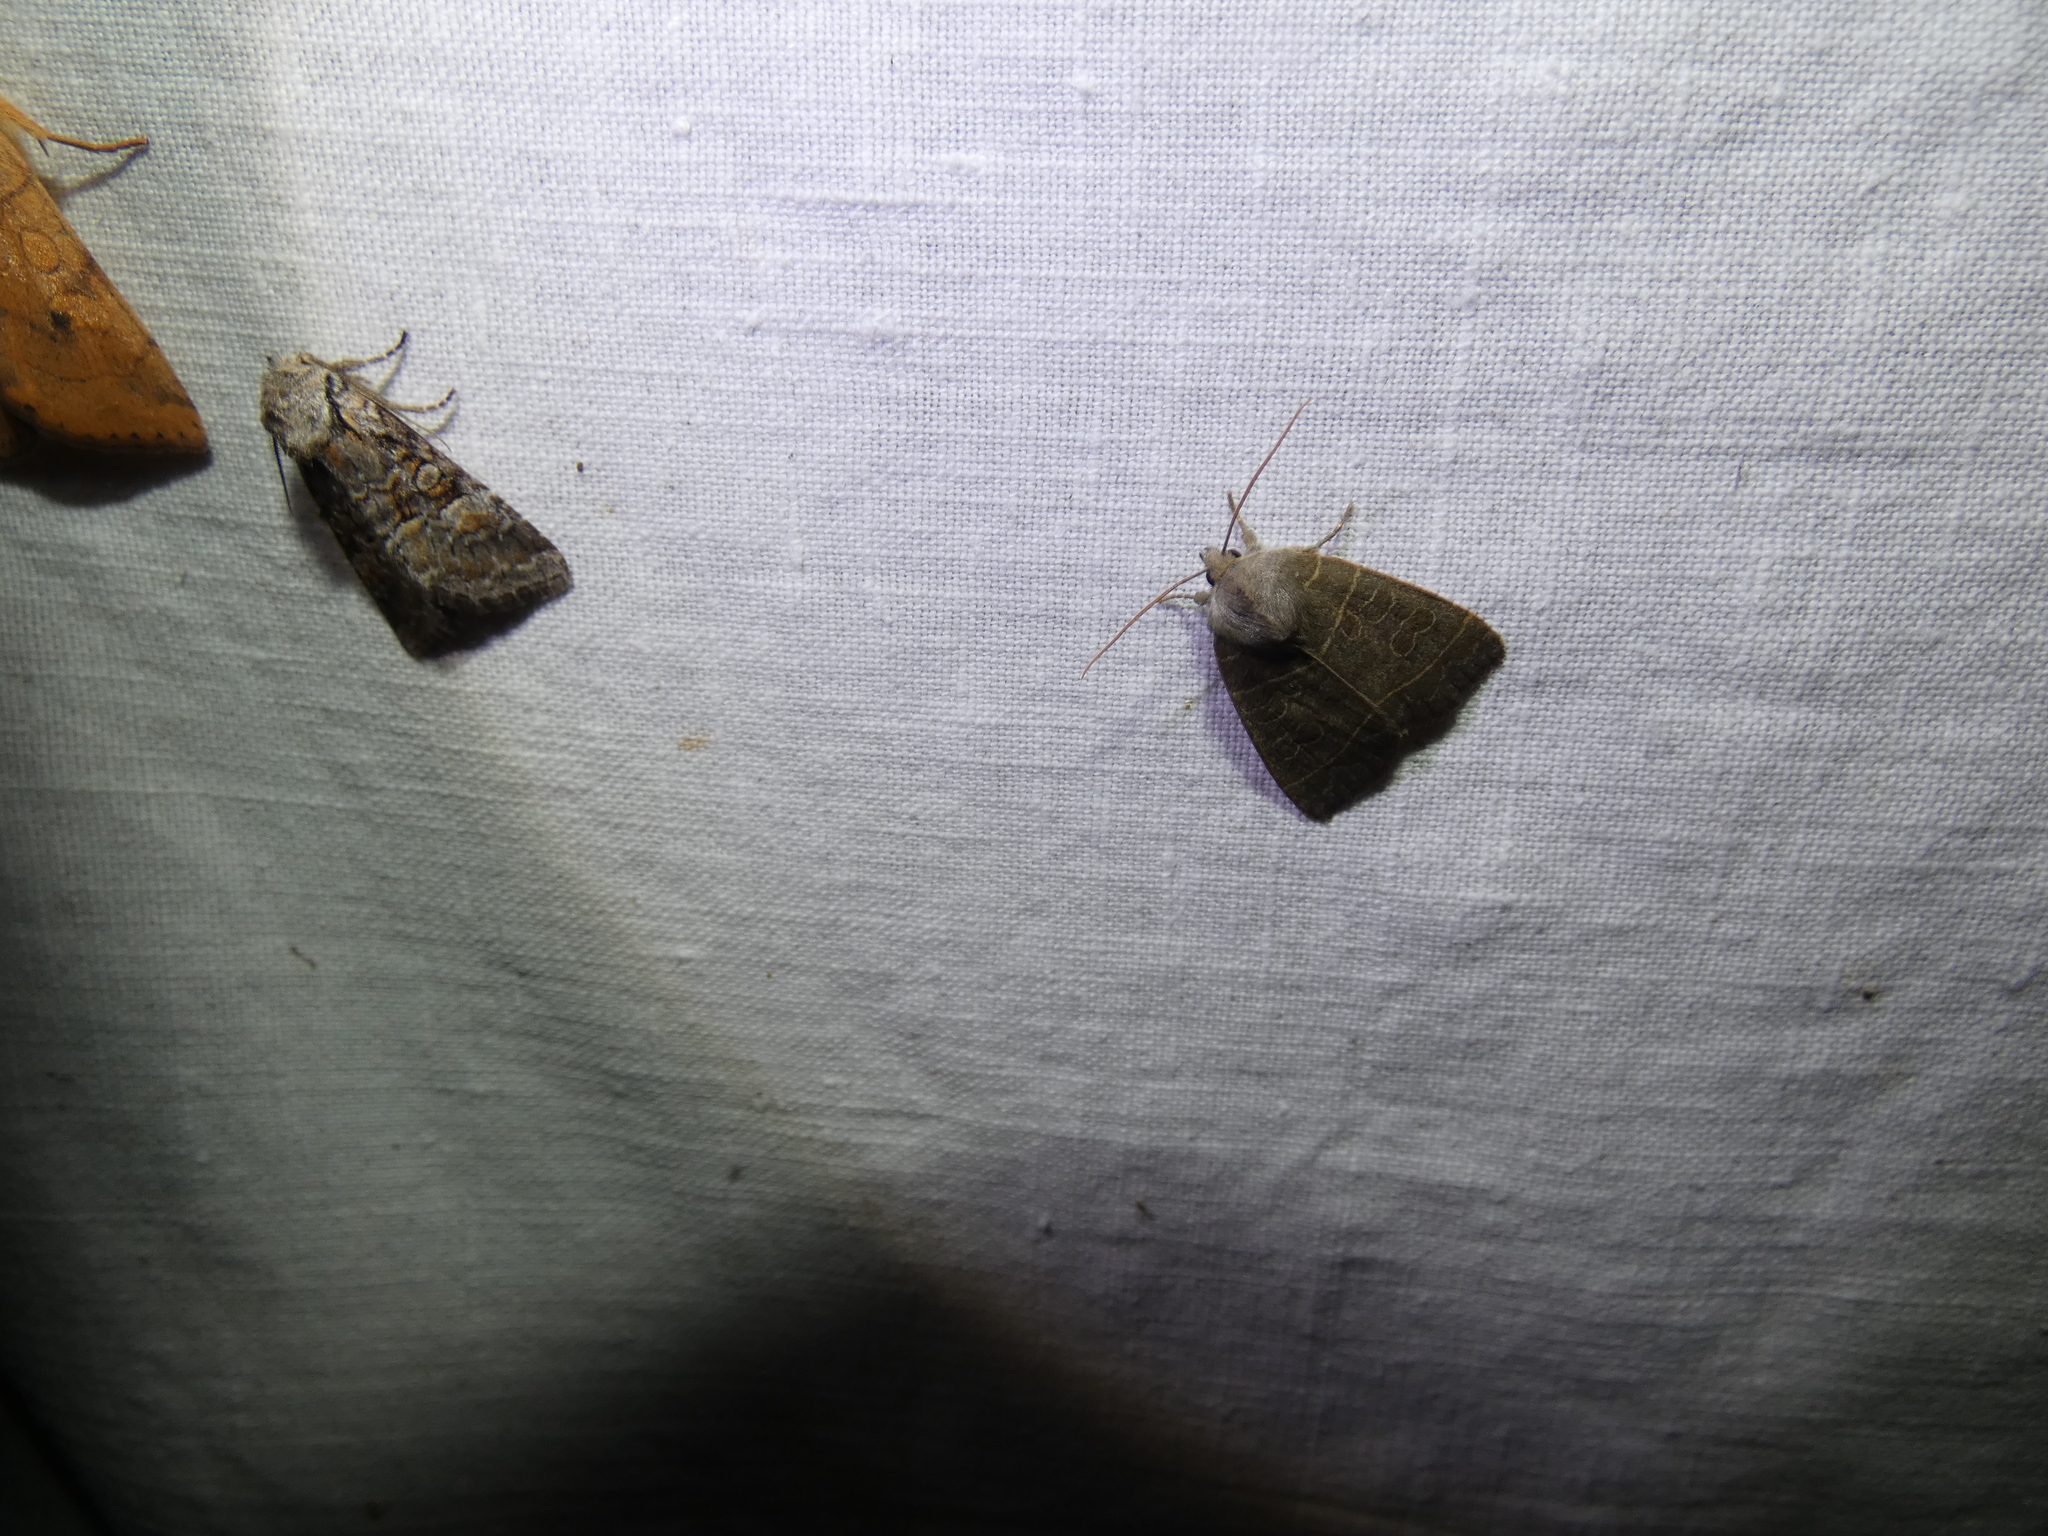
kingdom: Animalia
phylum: Arthropoda
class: Insecta
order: Lepidoptera
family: Noctuidae
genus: Brachylomia
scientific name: Brachylomia viminalis
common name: Minor shoulder-knot
